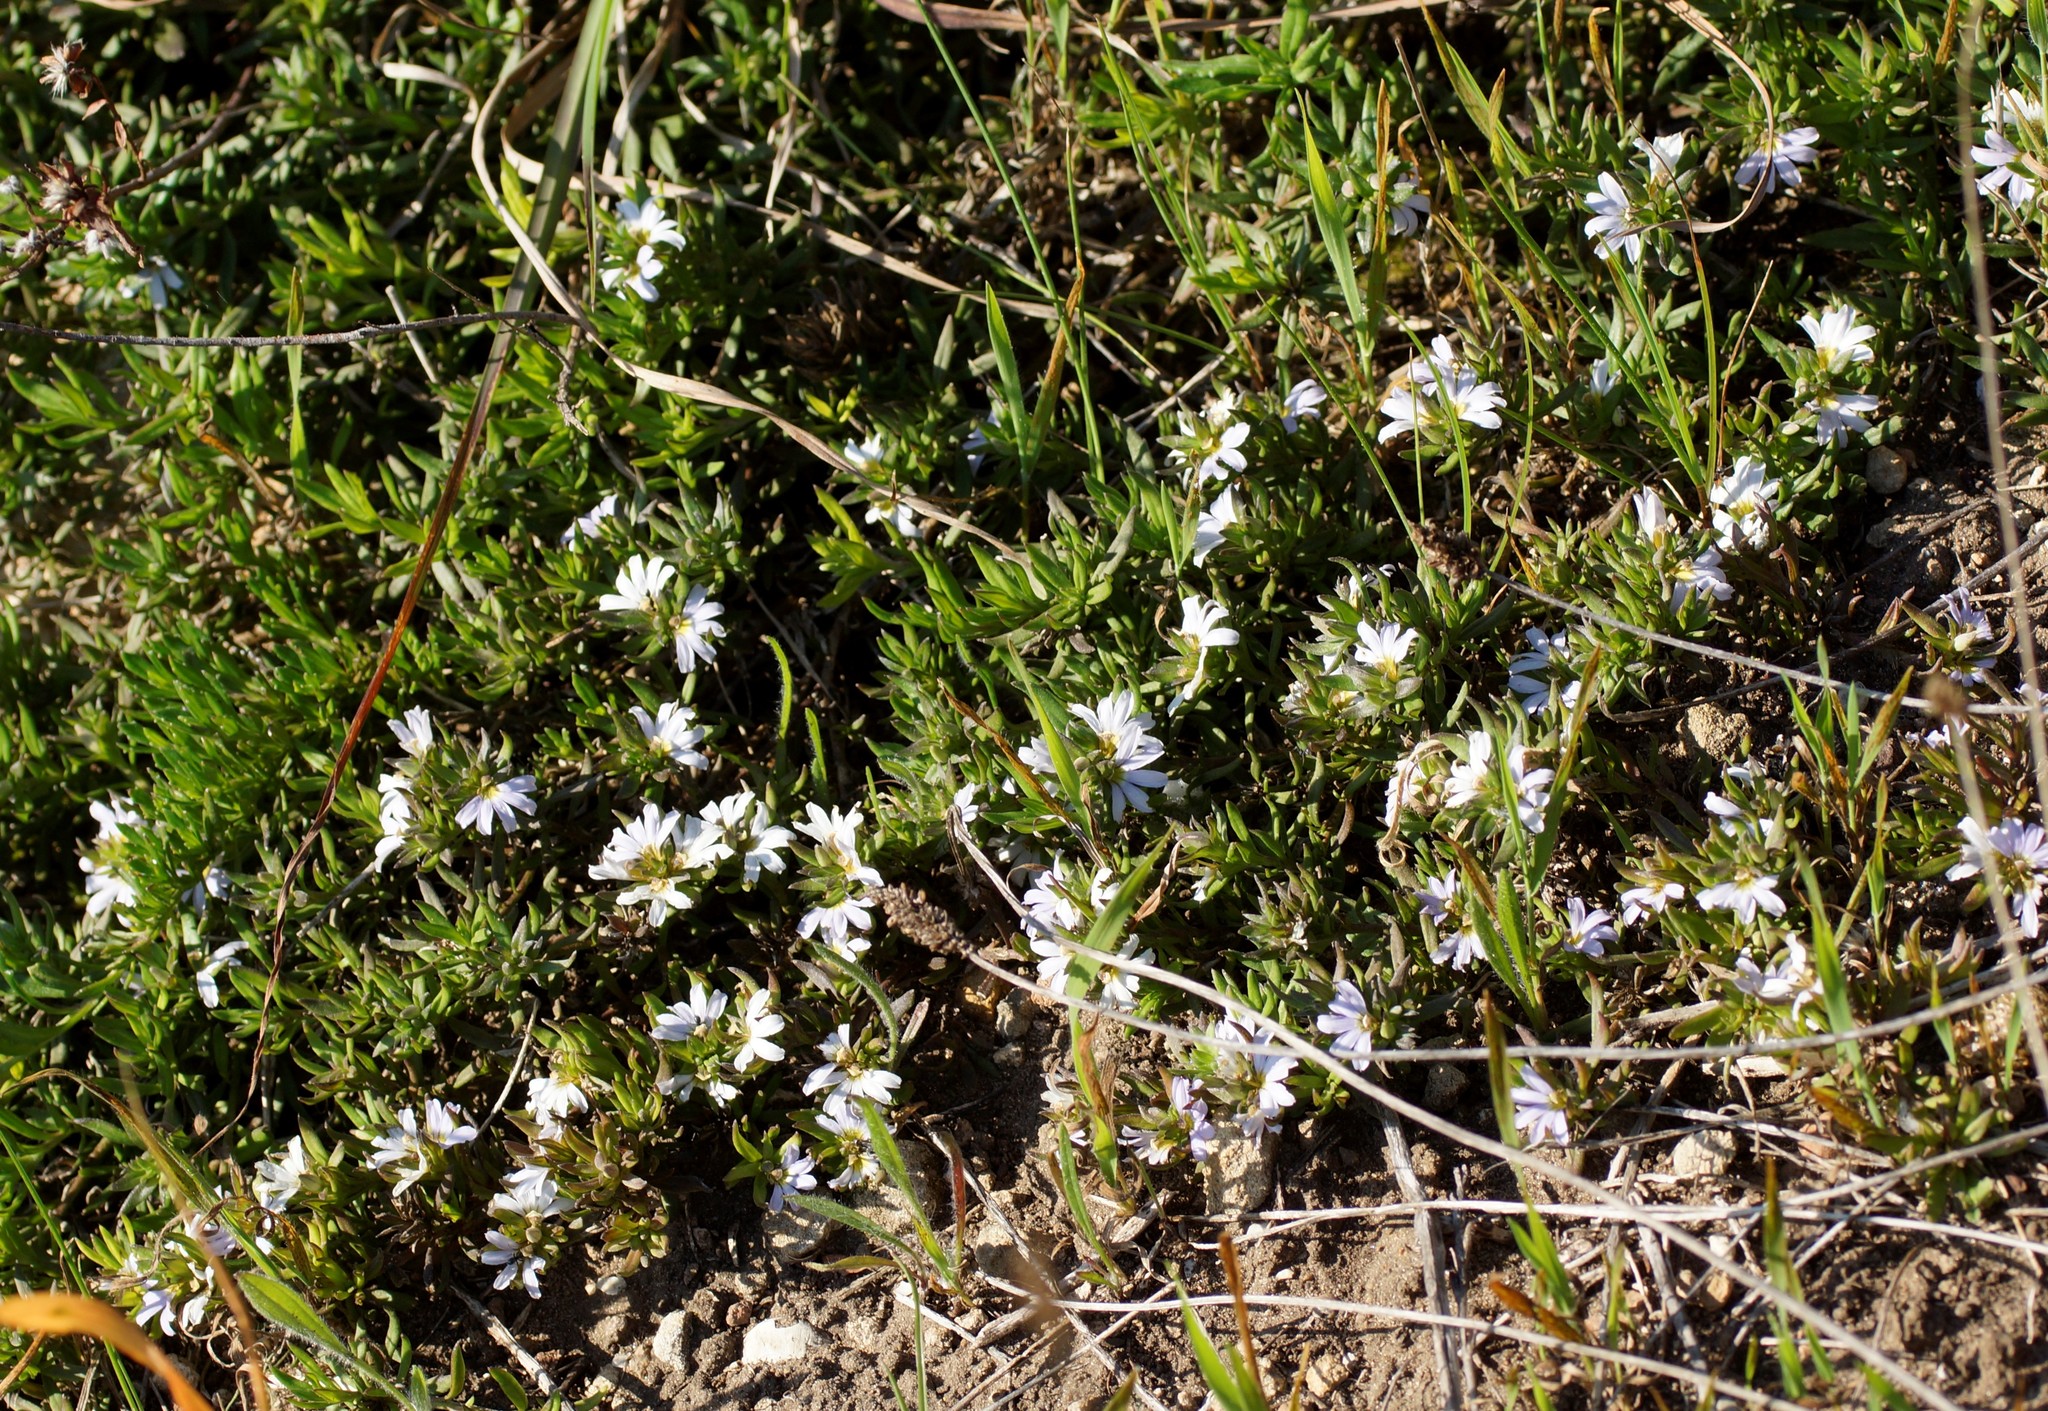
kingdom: Plantae
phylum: Tracheophyta
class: Magnoliopsida
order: Asterales
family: Goodeniaceae
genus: Scaevola
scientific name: Scaevola albida
